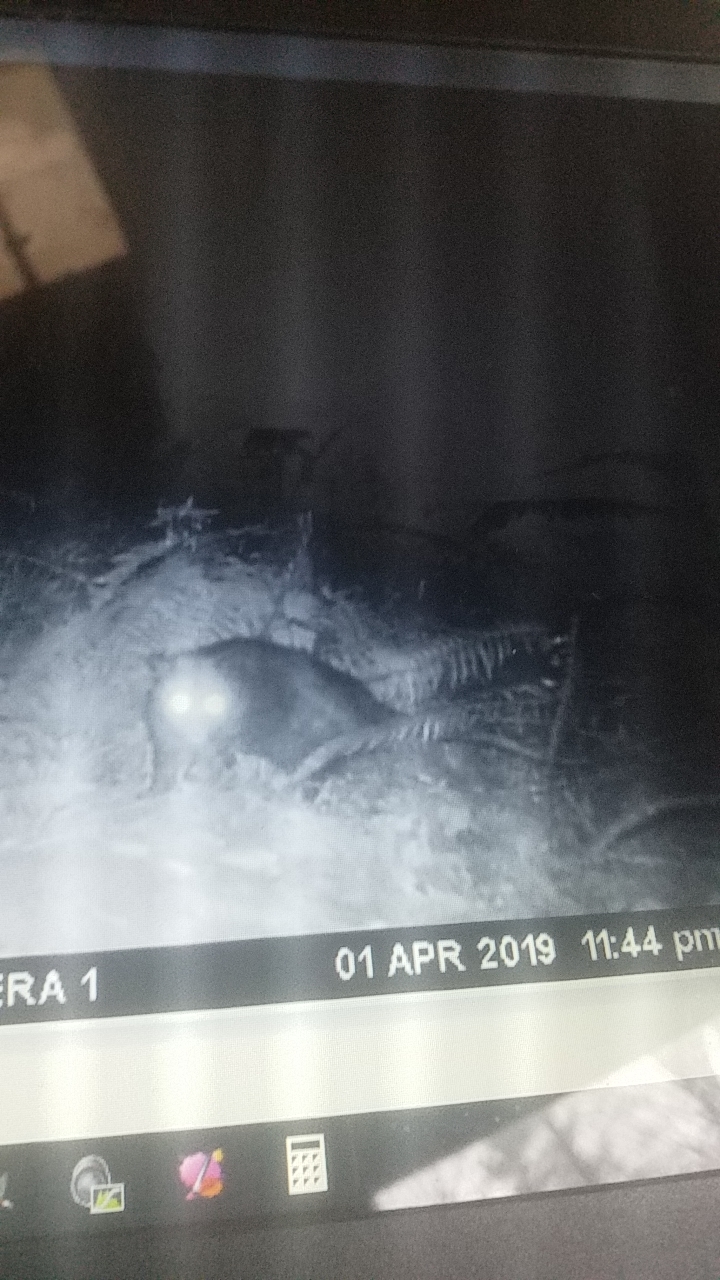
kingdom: Animalia
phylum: Chordata
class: Mammalia
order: Didelphimorphia
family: Didelphidae
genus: Didelphis
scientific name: Didelphis virginiana
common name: Virginia opossum
